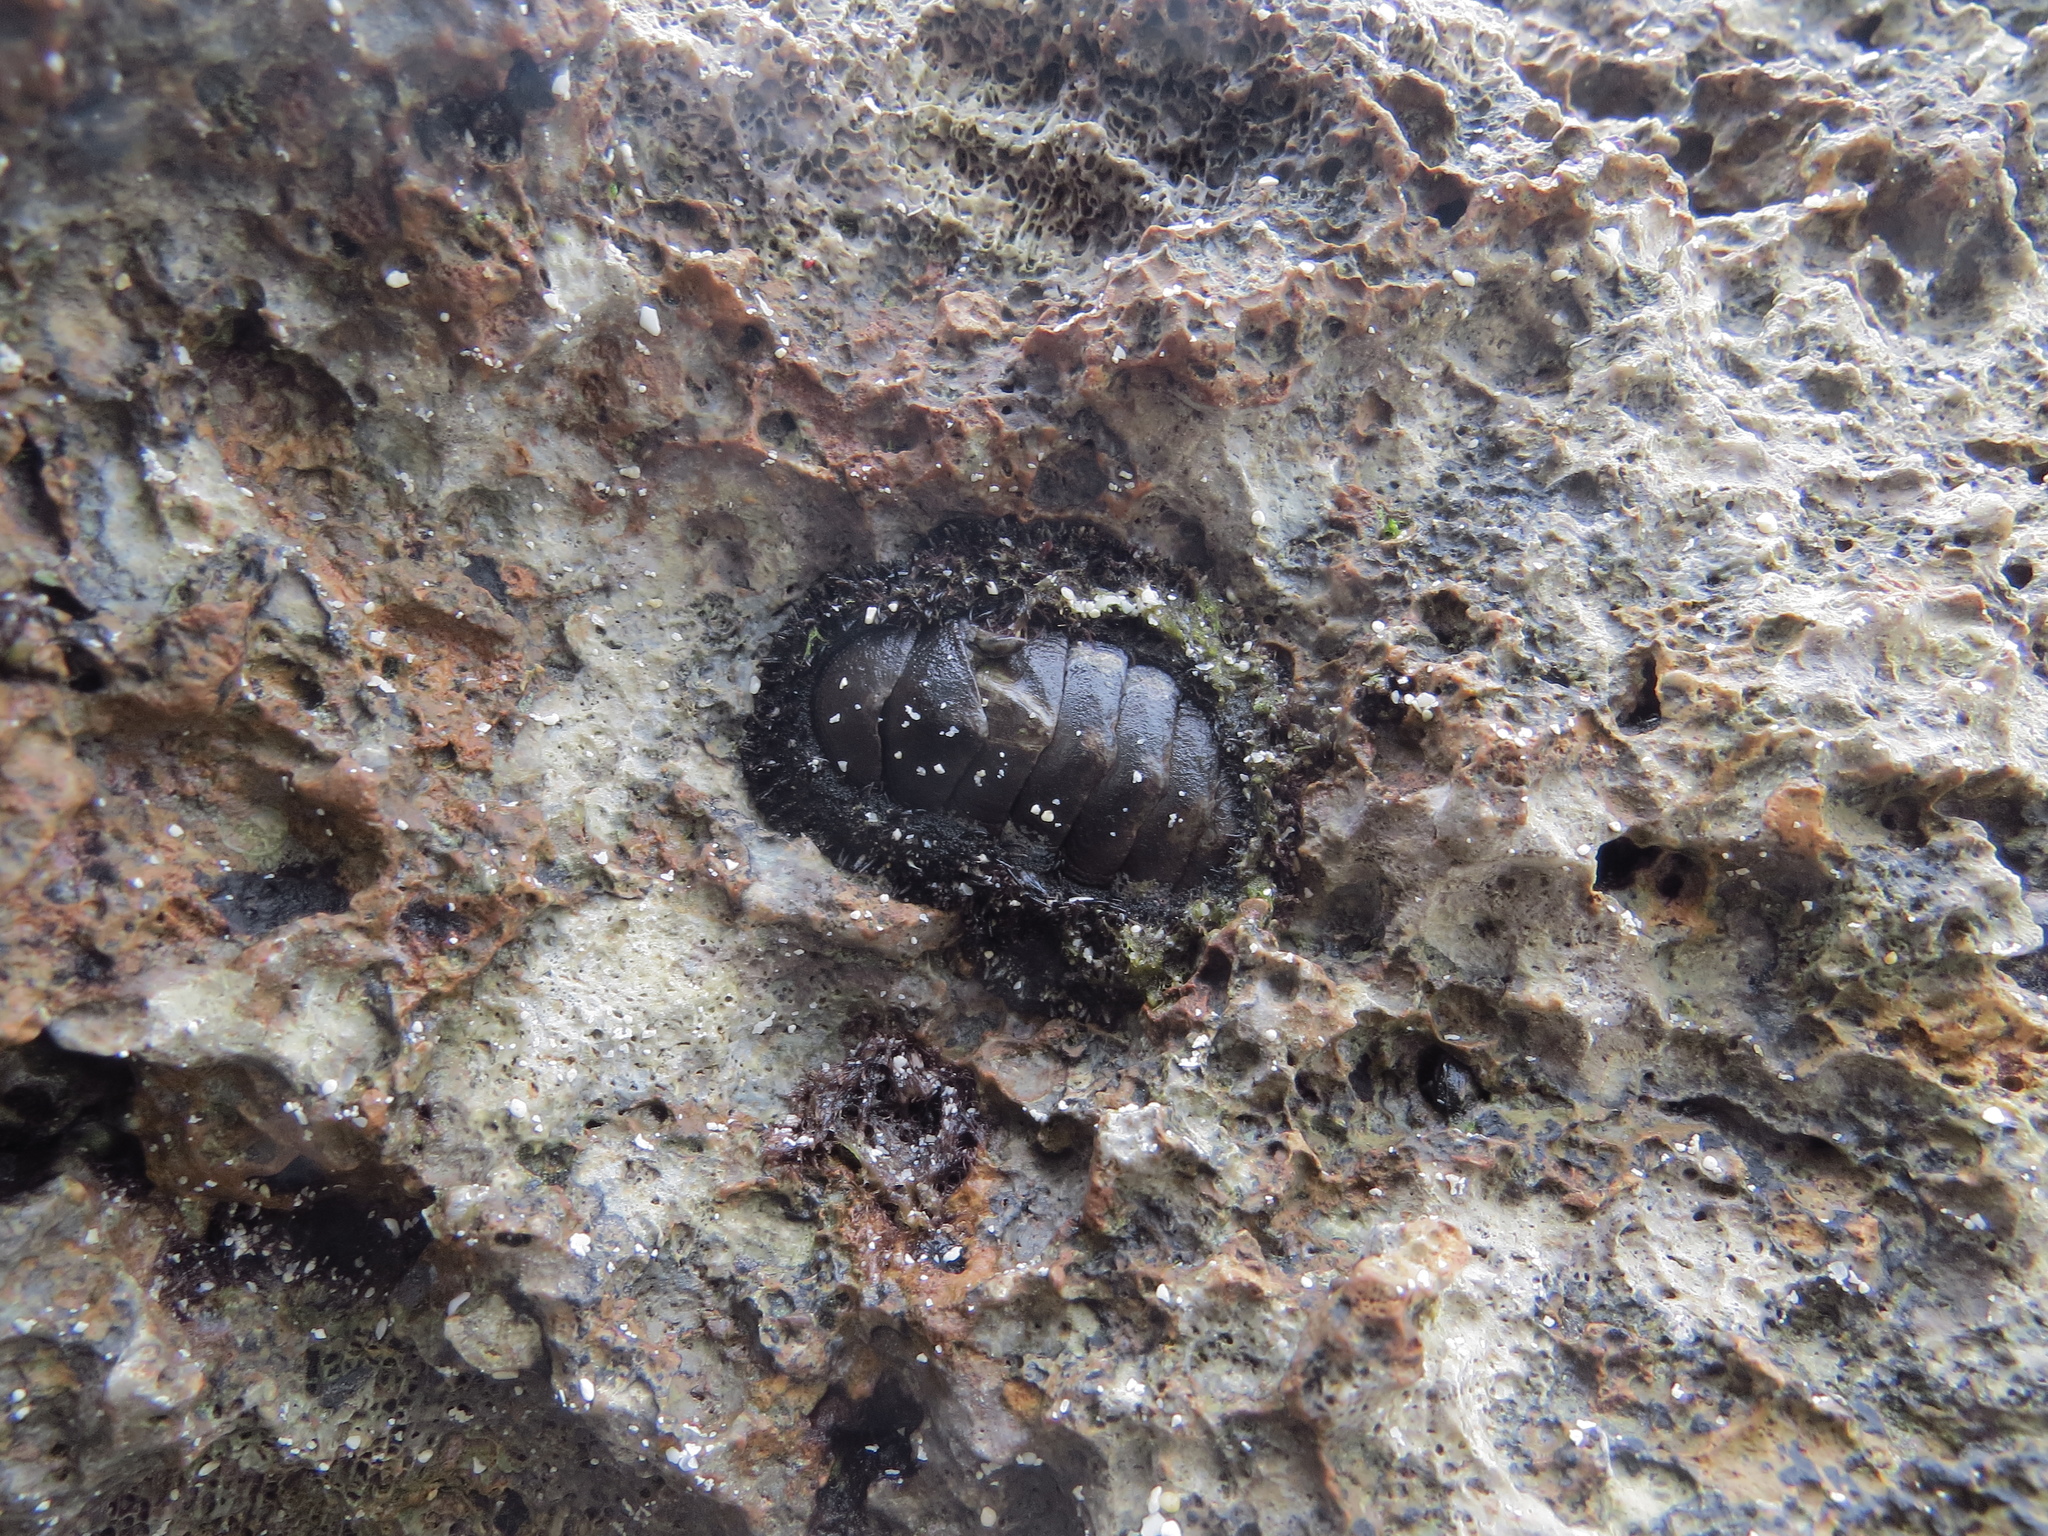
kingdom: Animalia
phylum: Mollusca
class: Polyplacophora
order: Chitonida
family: Chitonidae
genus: Acanthopleura
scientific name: Acanthopleura vaillantii
